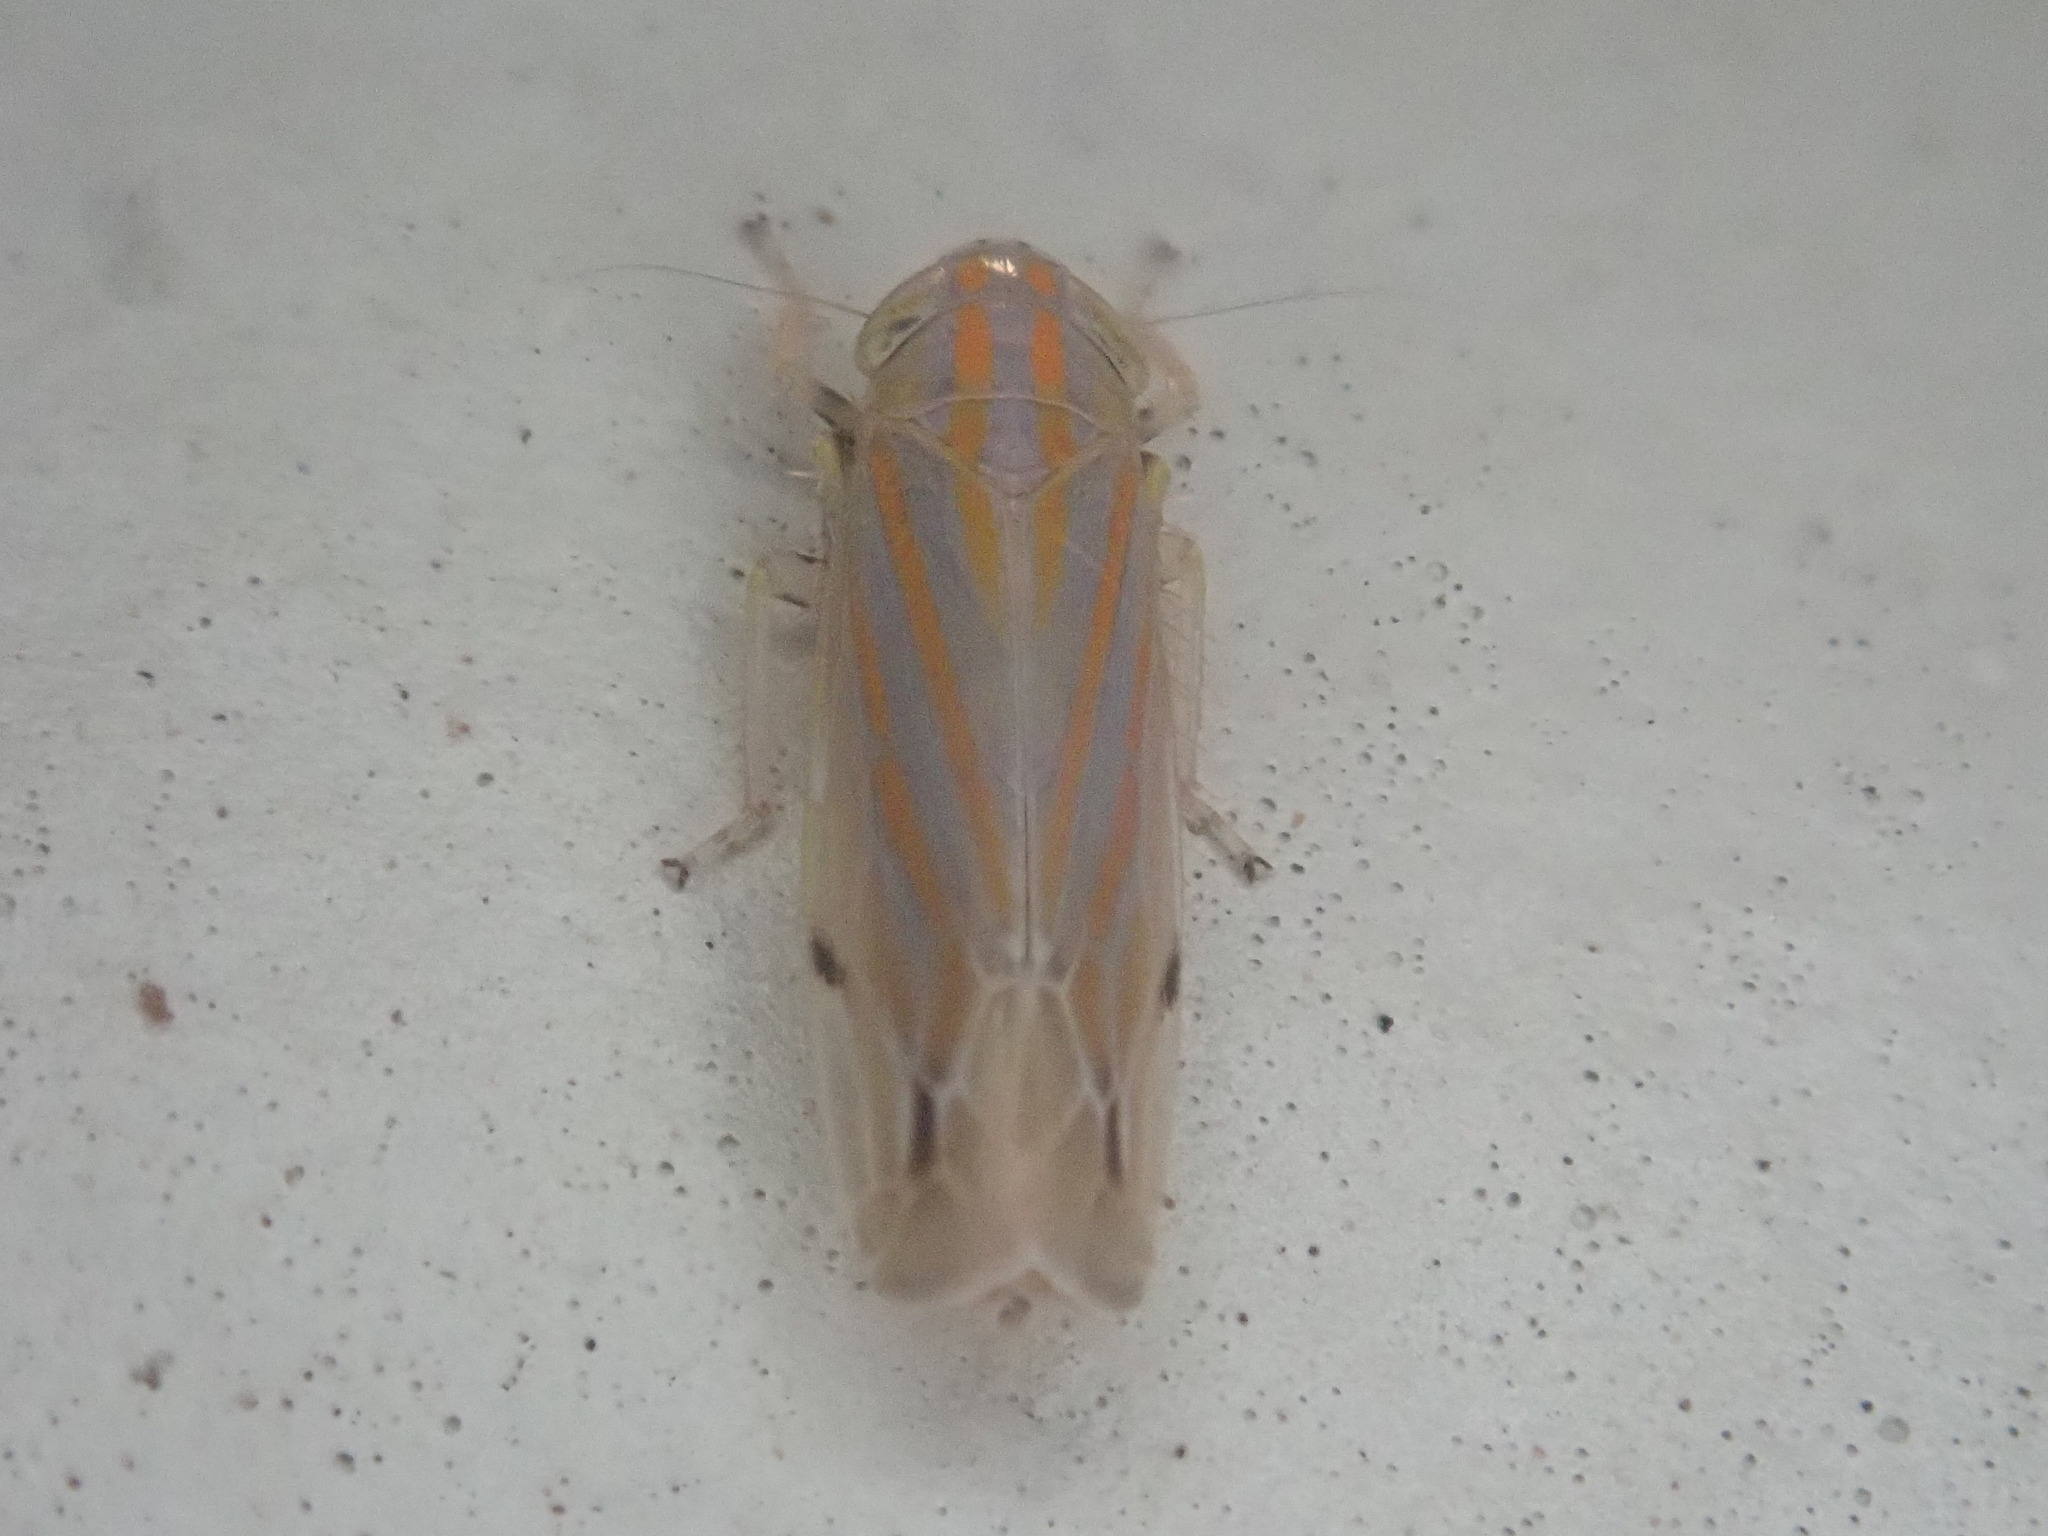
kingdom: Animalia
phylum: Arthropoda
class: Insecta
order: Hemiptera
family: Cicadellidae
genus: Deltanus
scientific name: Deltanus texanus
